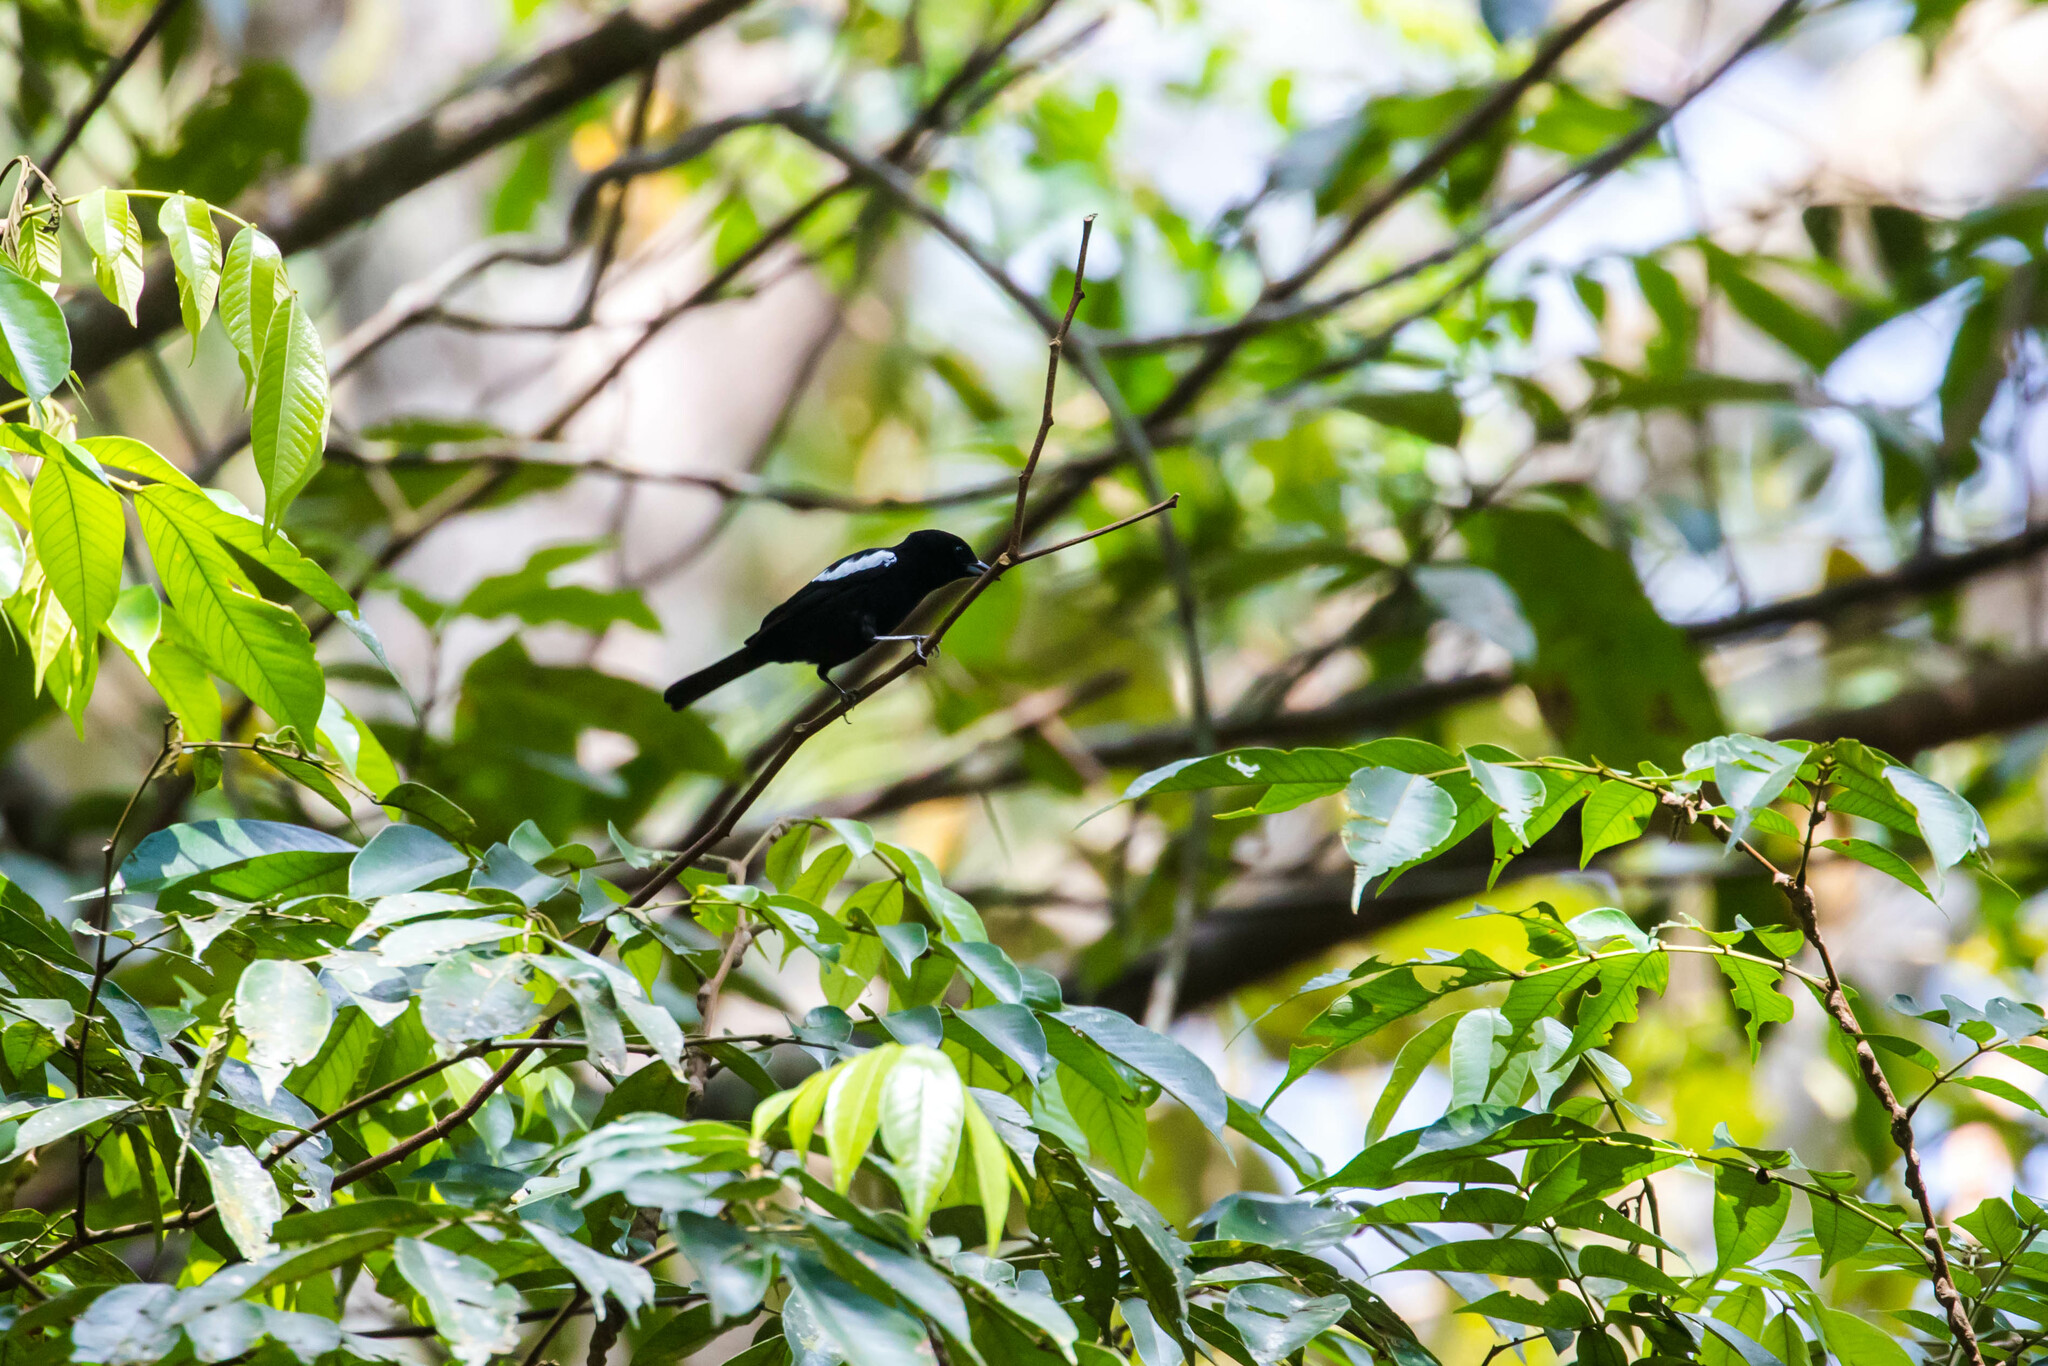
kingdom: Animalia
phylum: Chordata
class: Aves
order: Passeriformes
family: Thraupidae
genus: Loriotus
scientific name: Loriotus luctuosus
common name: White-shouldered tanager
